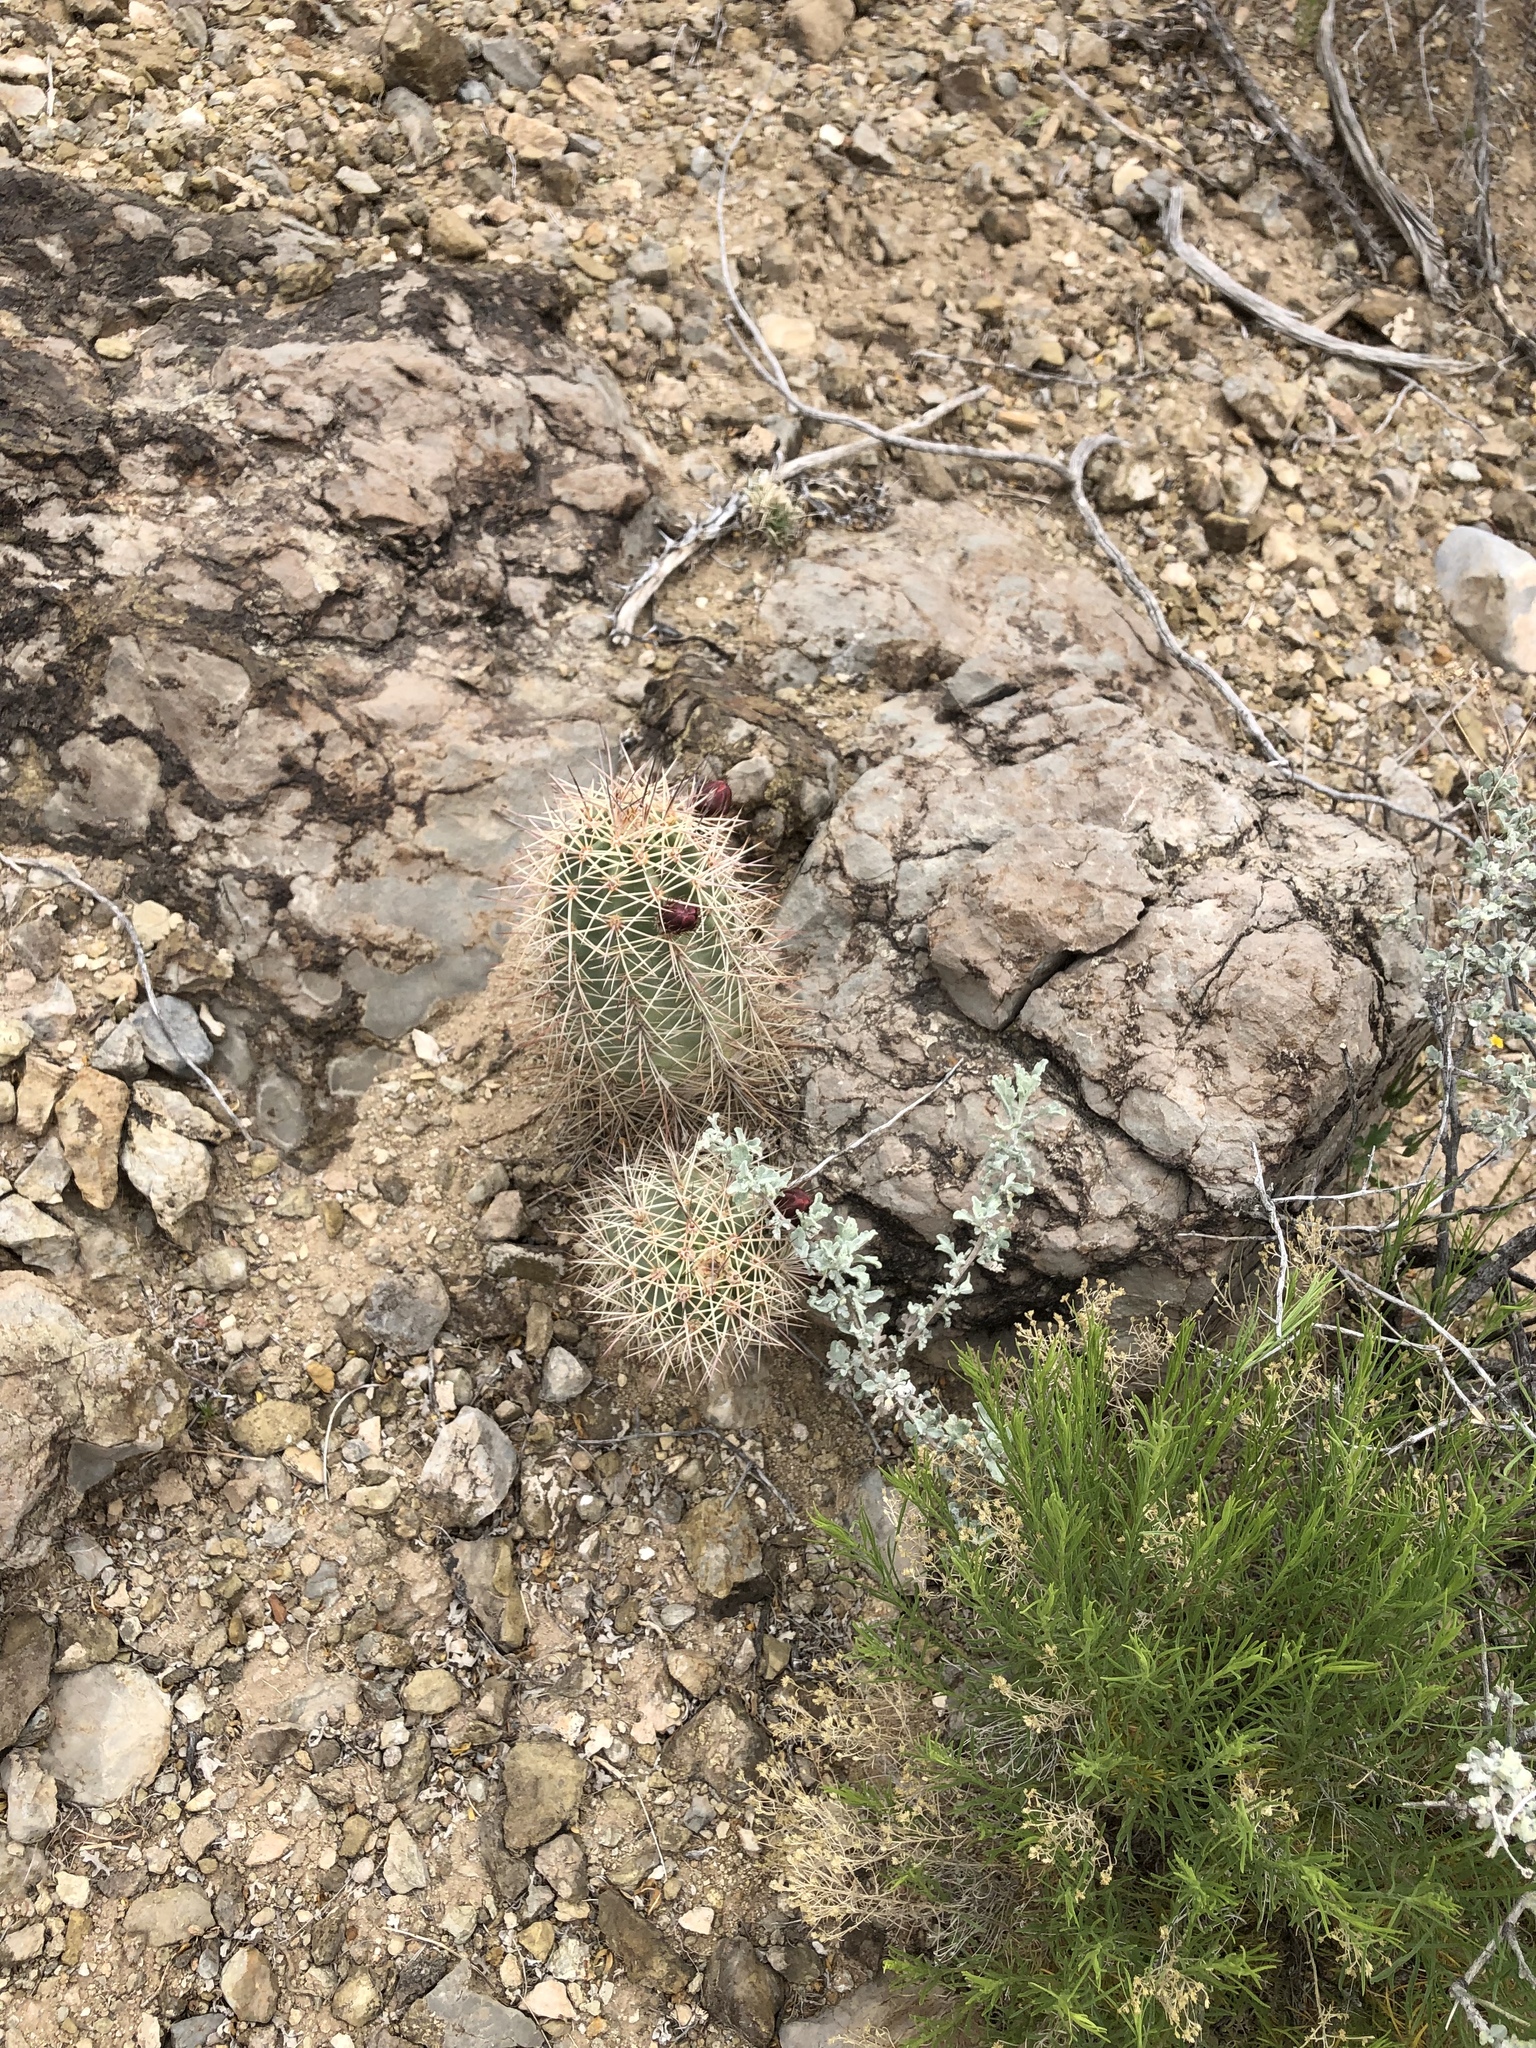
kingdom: Plantae
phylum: Tracheophyta
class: Magnoliopsida
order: Caryophyllales
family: Cactaceae
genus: Echinocereus
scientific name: Echinocereus coccineus
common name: Scarlet hedgehog cactus
